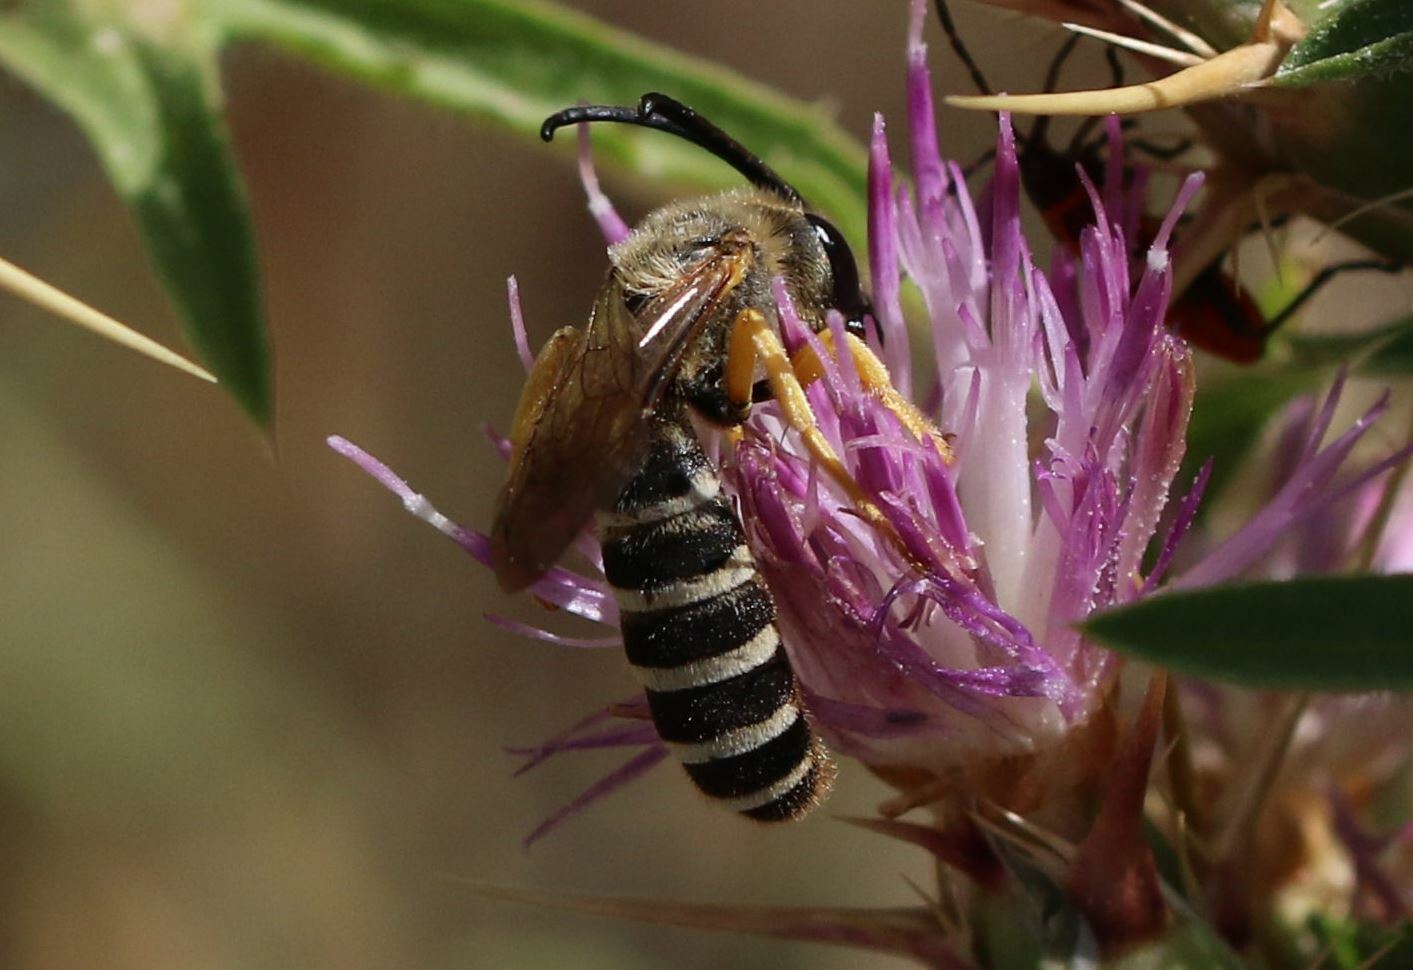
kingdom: Animalia
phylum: Arthropoda
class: Insecta
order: Hymenoptera
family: Halictidae
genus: Halictus
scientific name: Halictus scabiosae
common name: Great banded furrow bee
